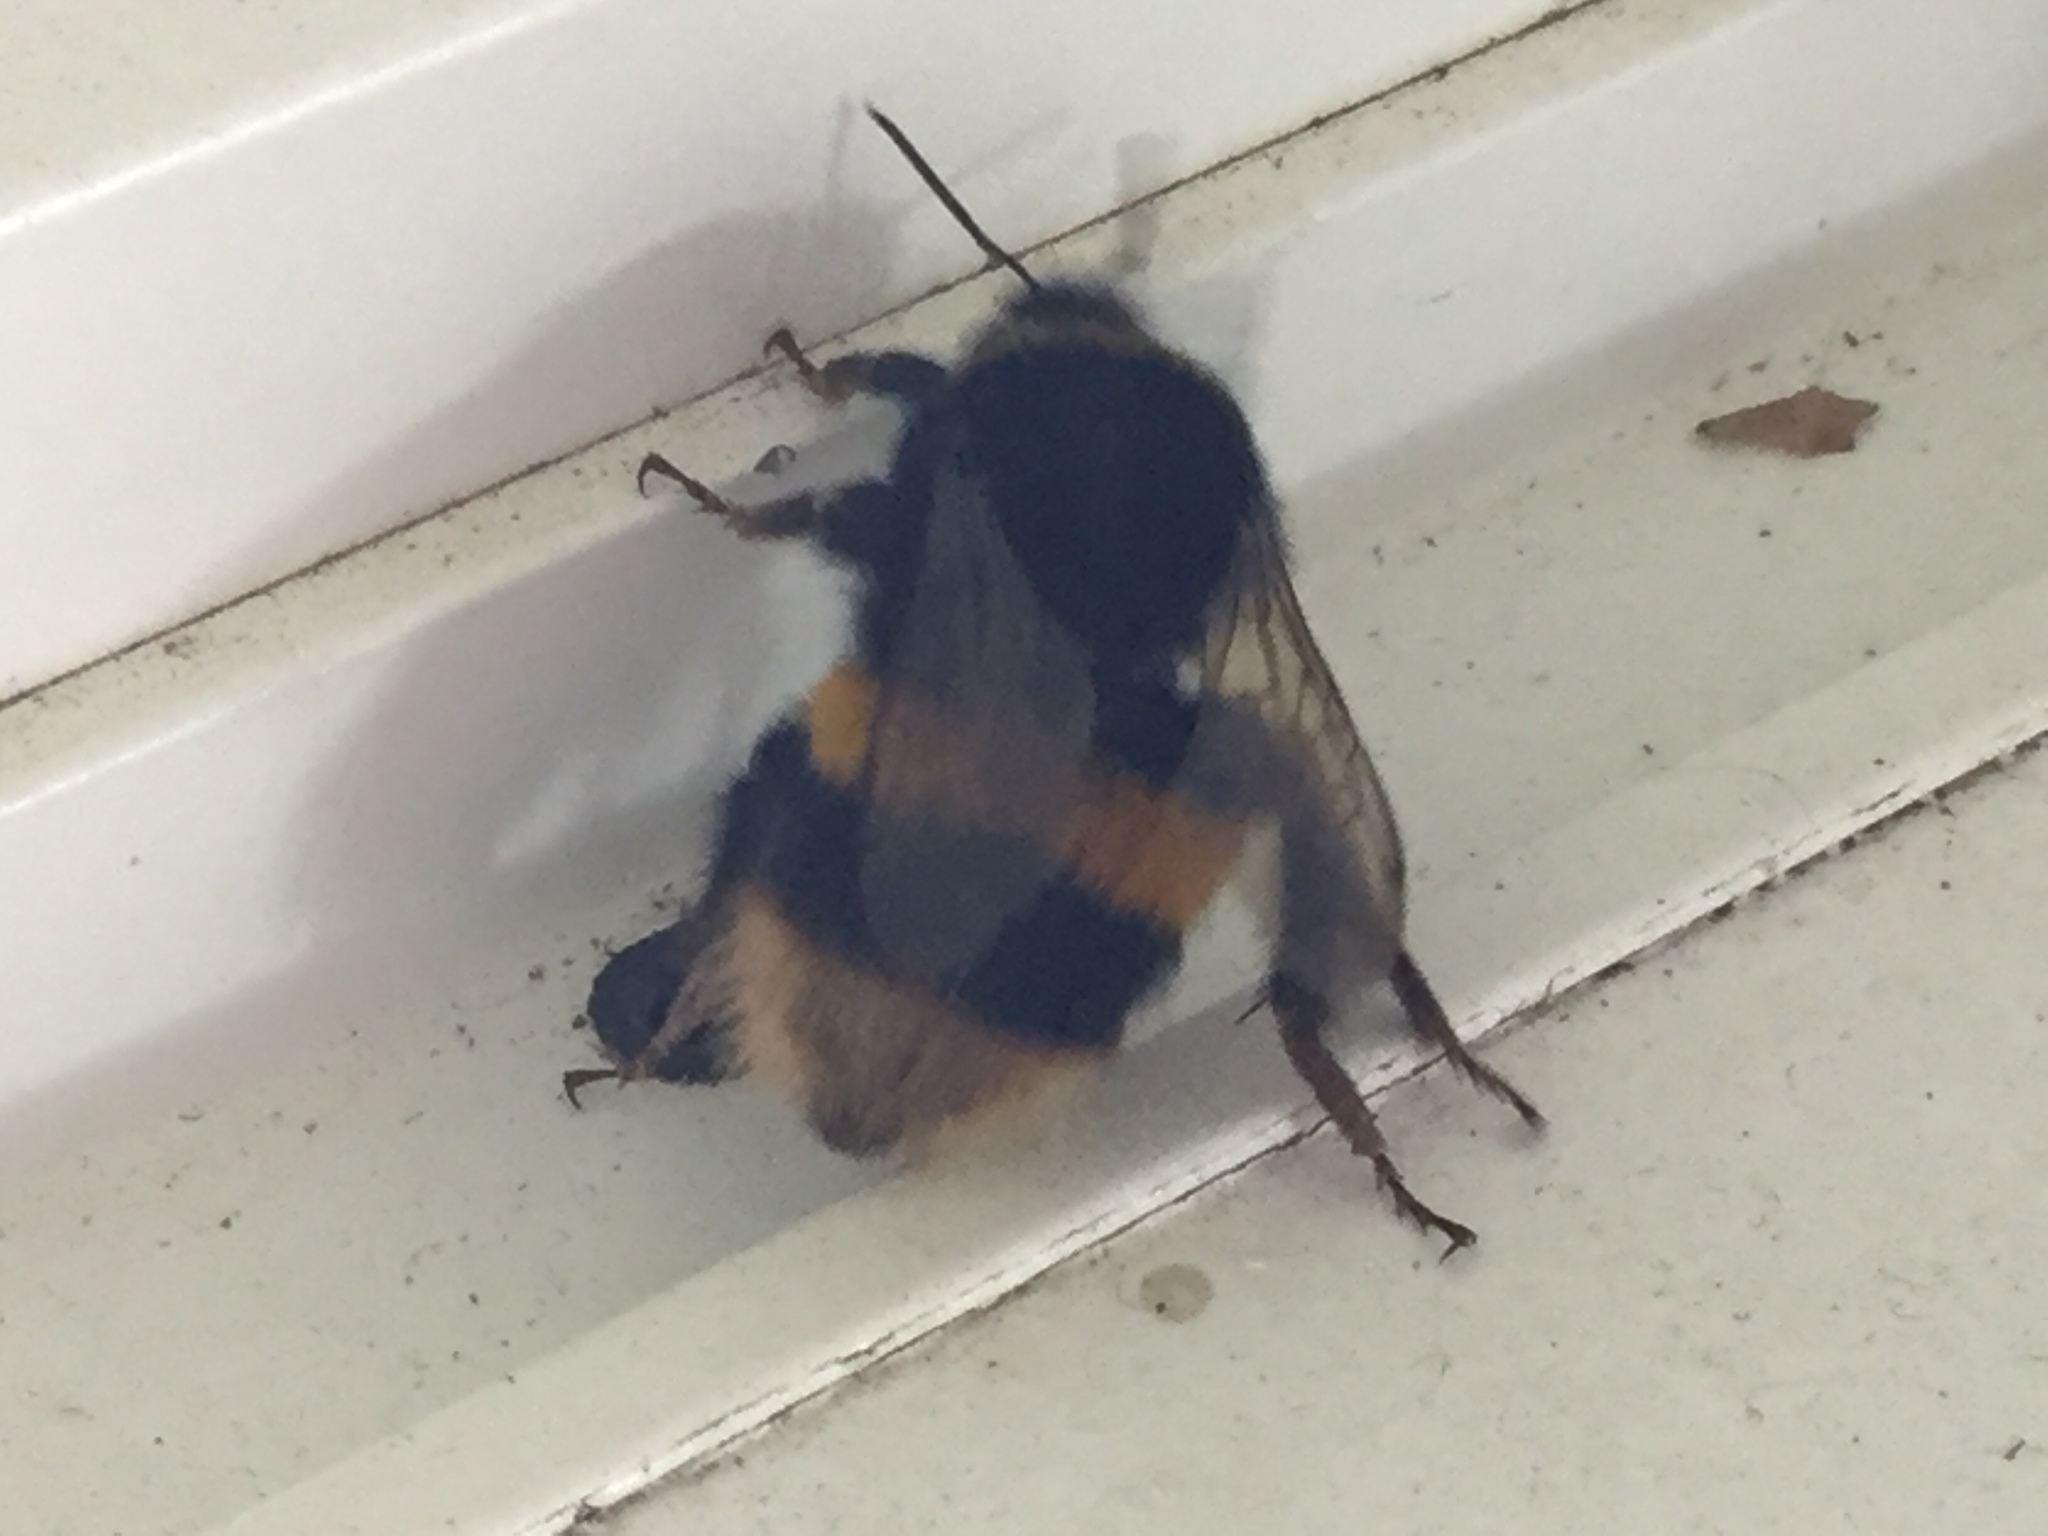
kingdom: Animalia
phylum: Arthropoda
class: Insecta
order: Hymenoptera
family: Apidae
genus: Bombus
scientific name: Bombus terrestris
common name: Buff-tailed bumblebee
